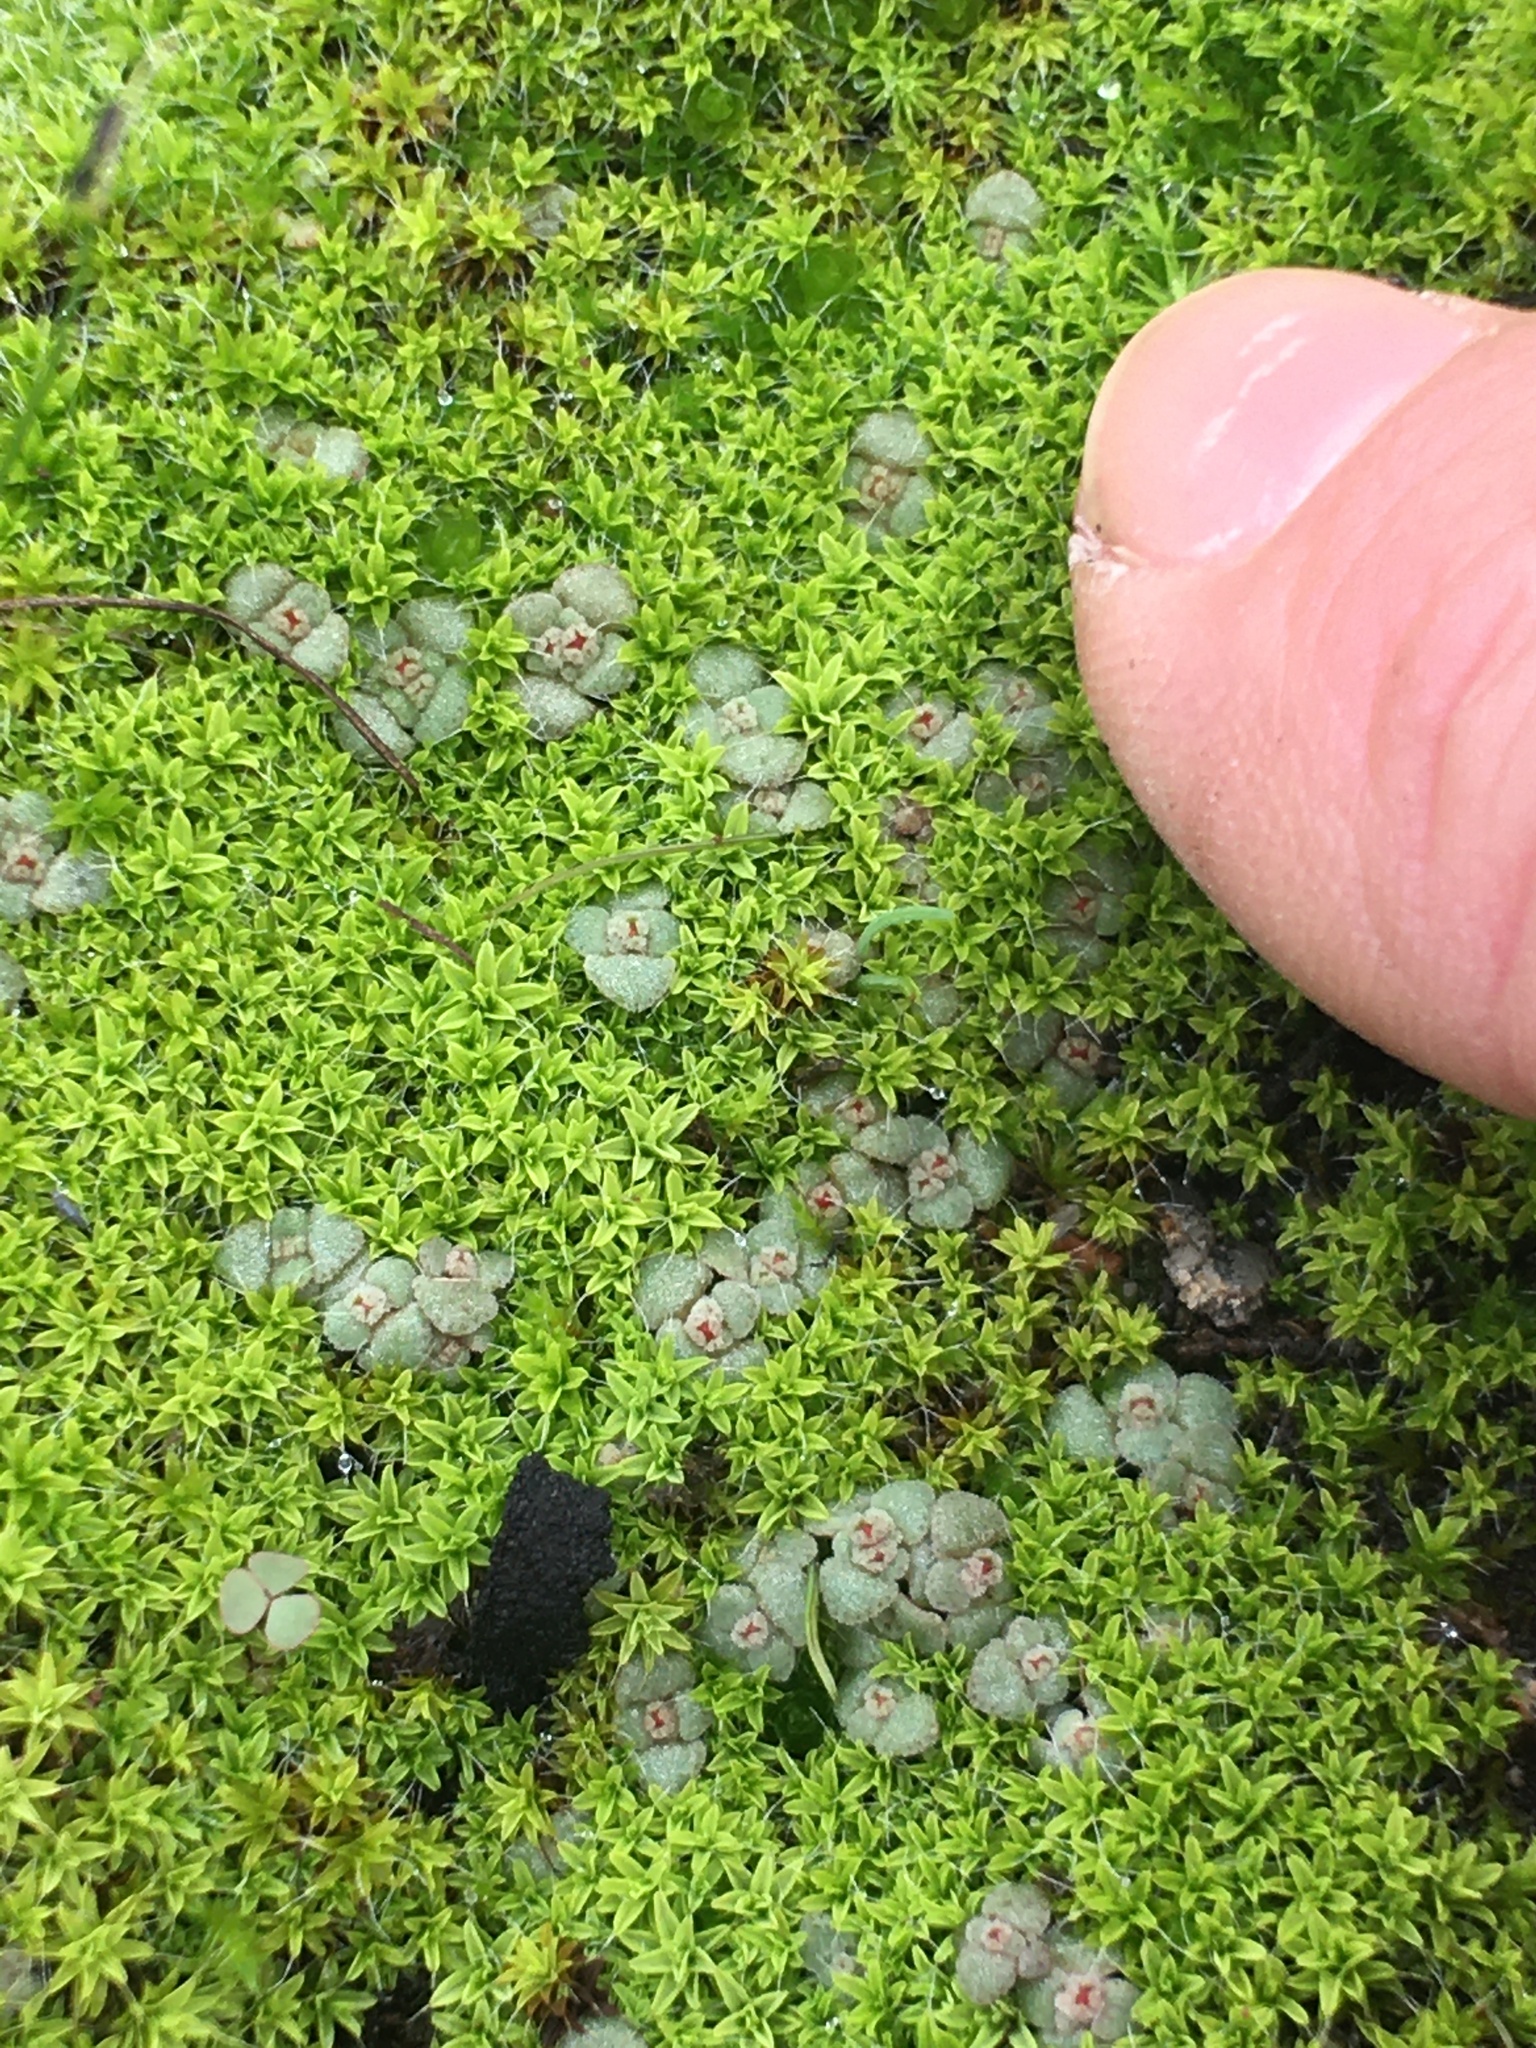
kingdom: Plantae
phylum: Tracheophyta
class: Magnoliopsida
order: Saxifragales
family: Crassulaceae
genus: Crassula
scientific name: Crassula umbellata
